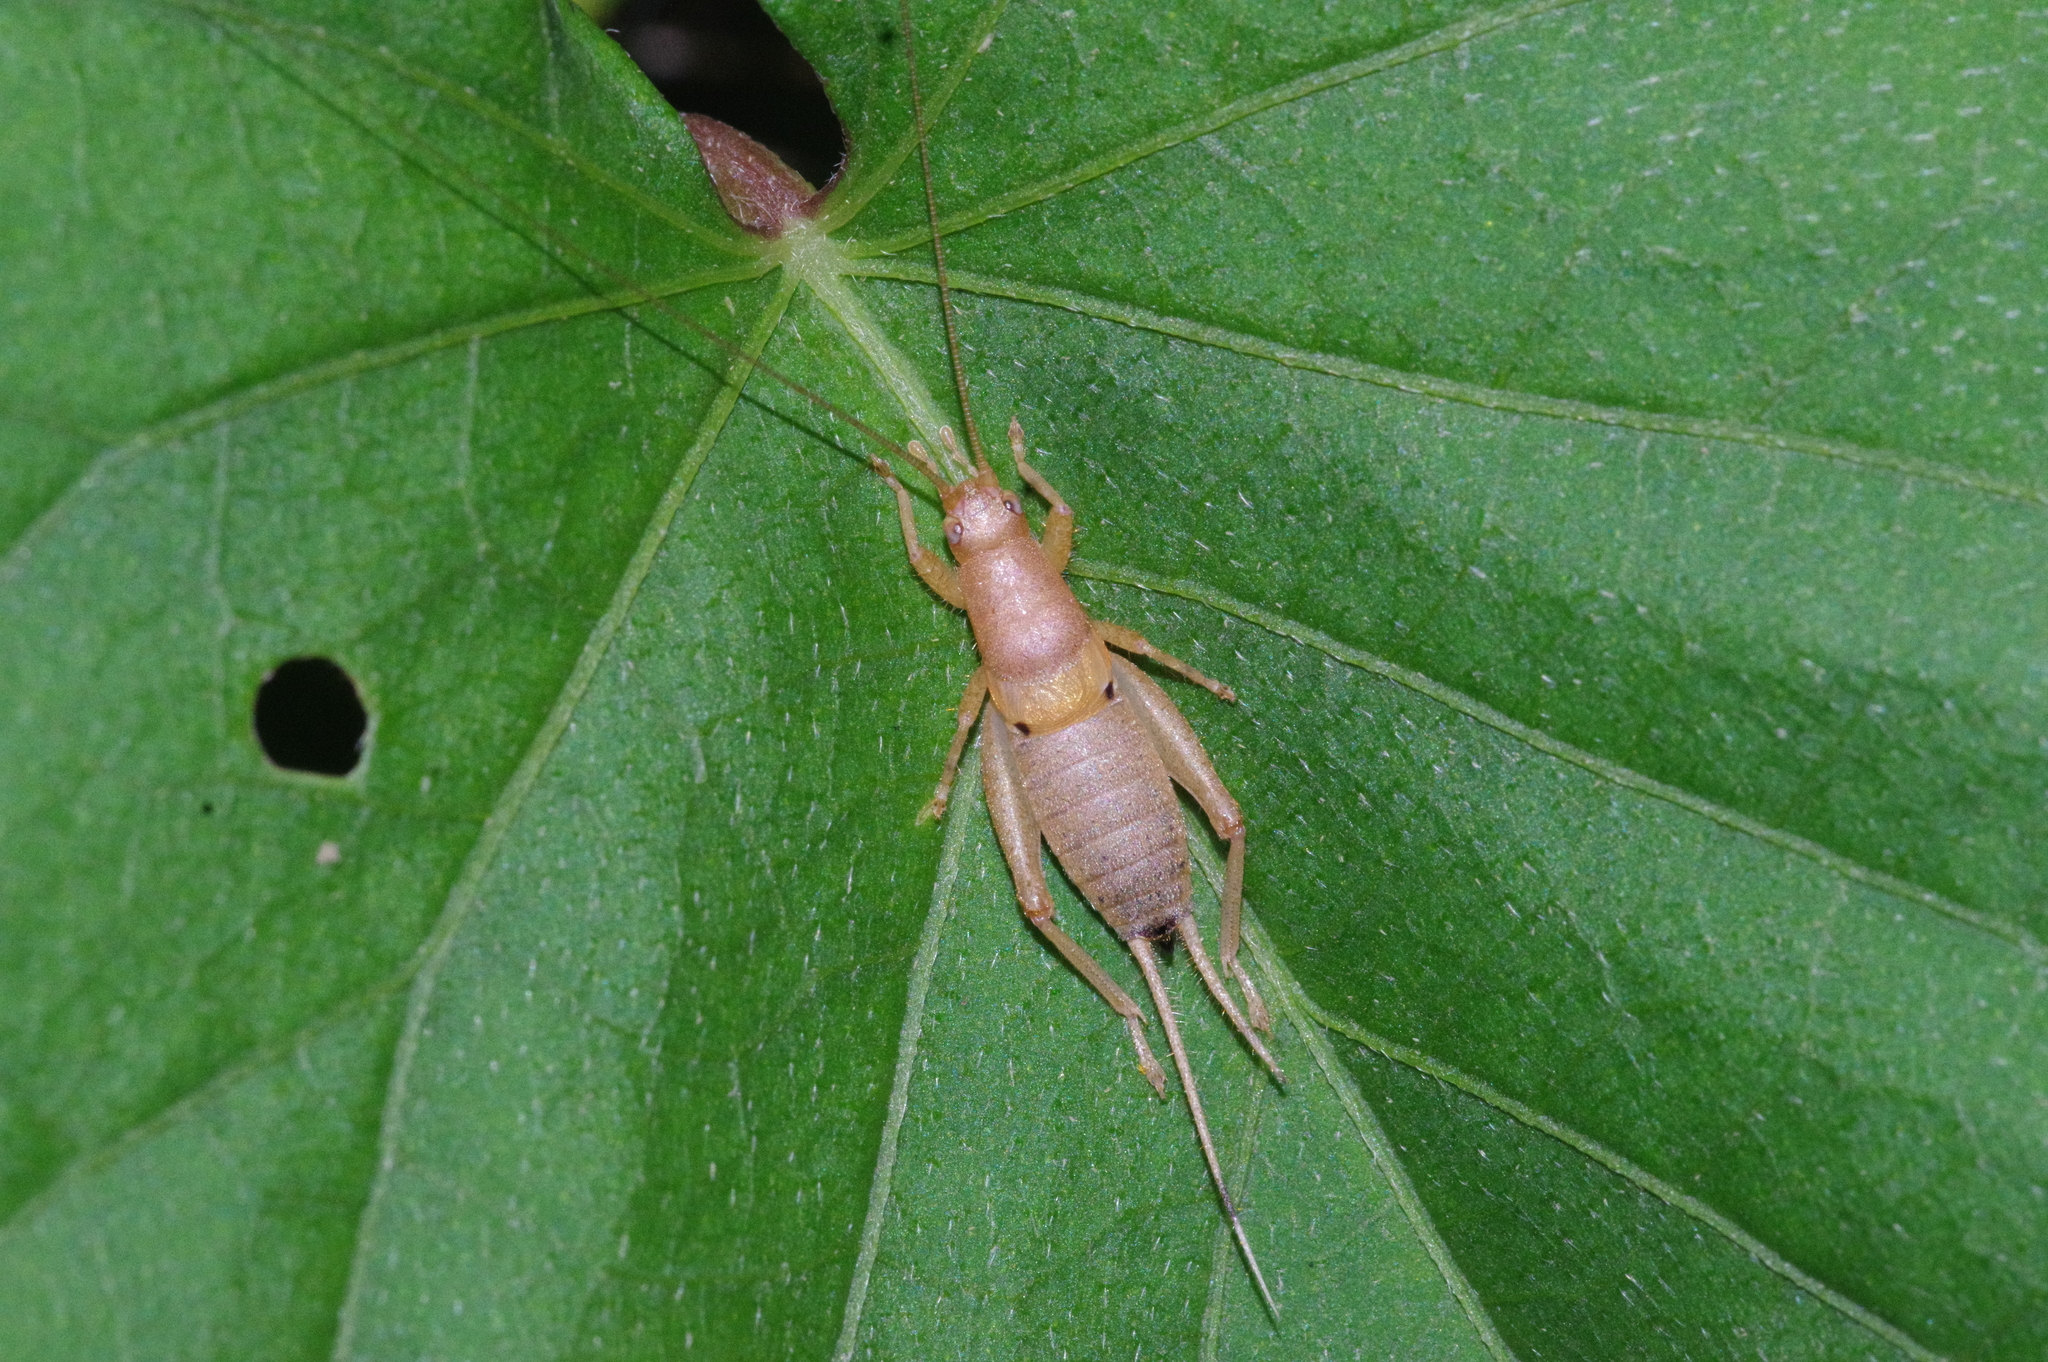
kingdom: Animalia
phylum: Arthropoda
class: Insecta
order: Orthoptera
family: Mogoplistidae
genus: Ornebius
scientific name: Ornebius bimaculatus
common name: Cricket
